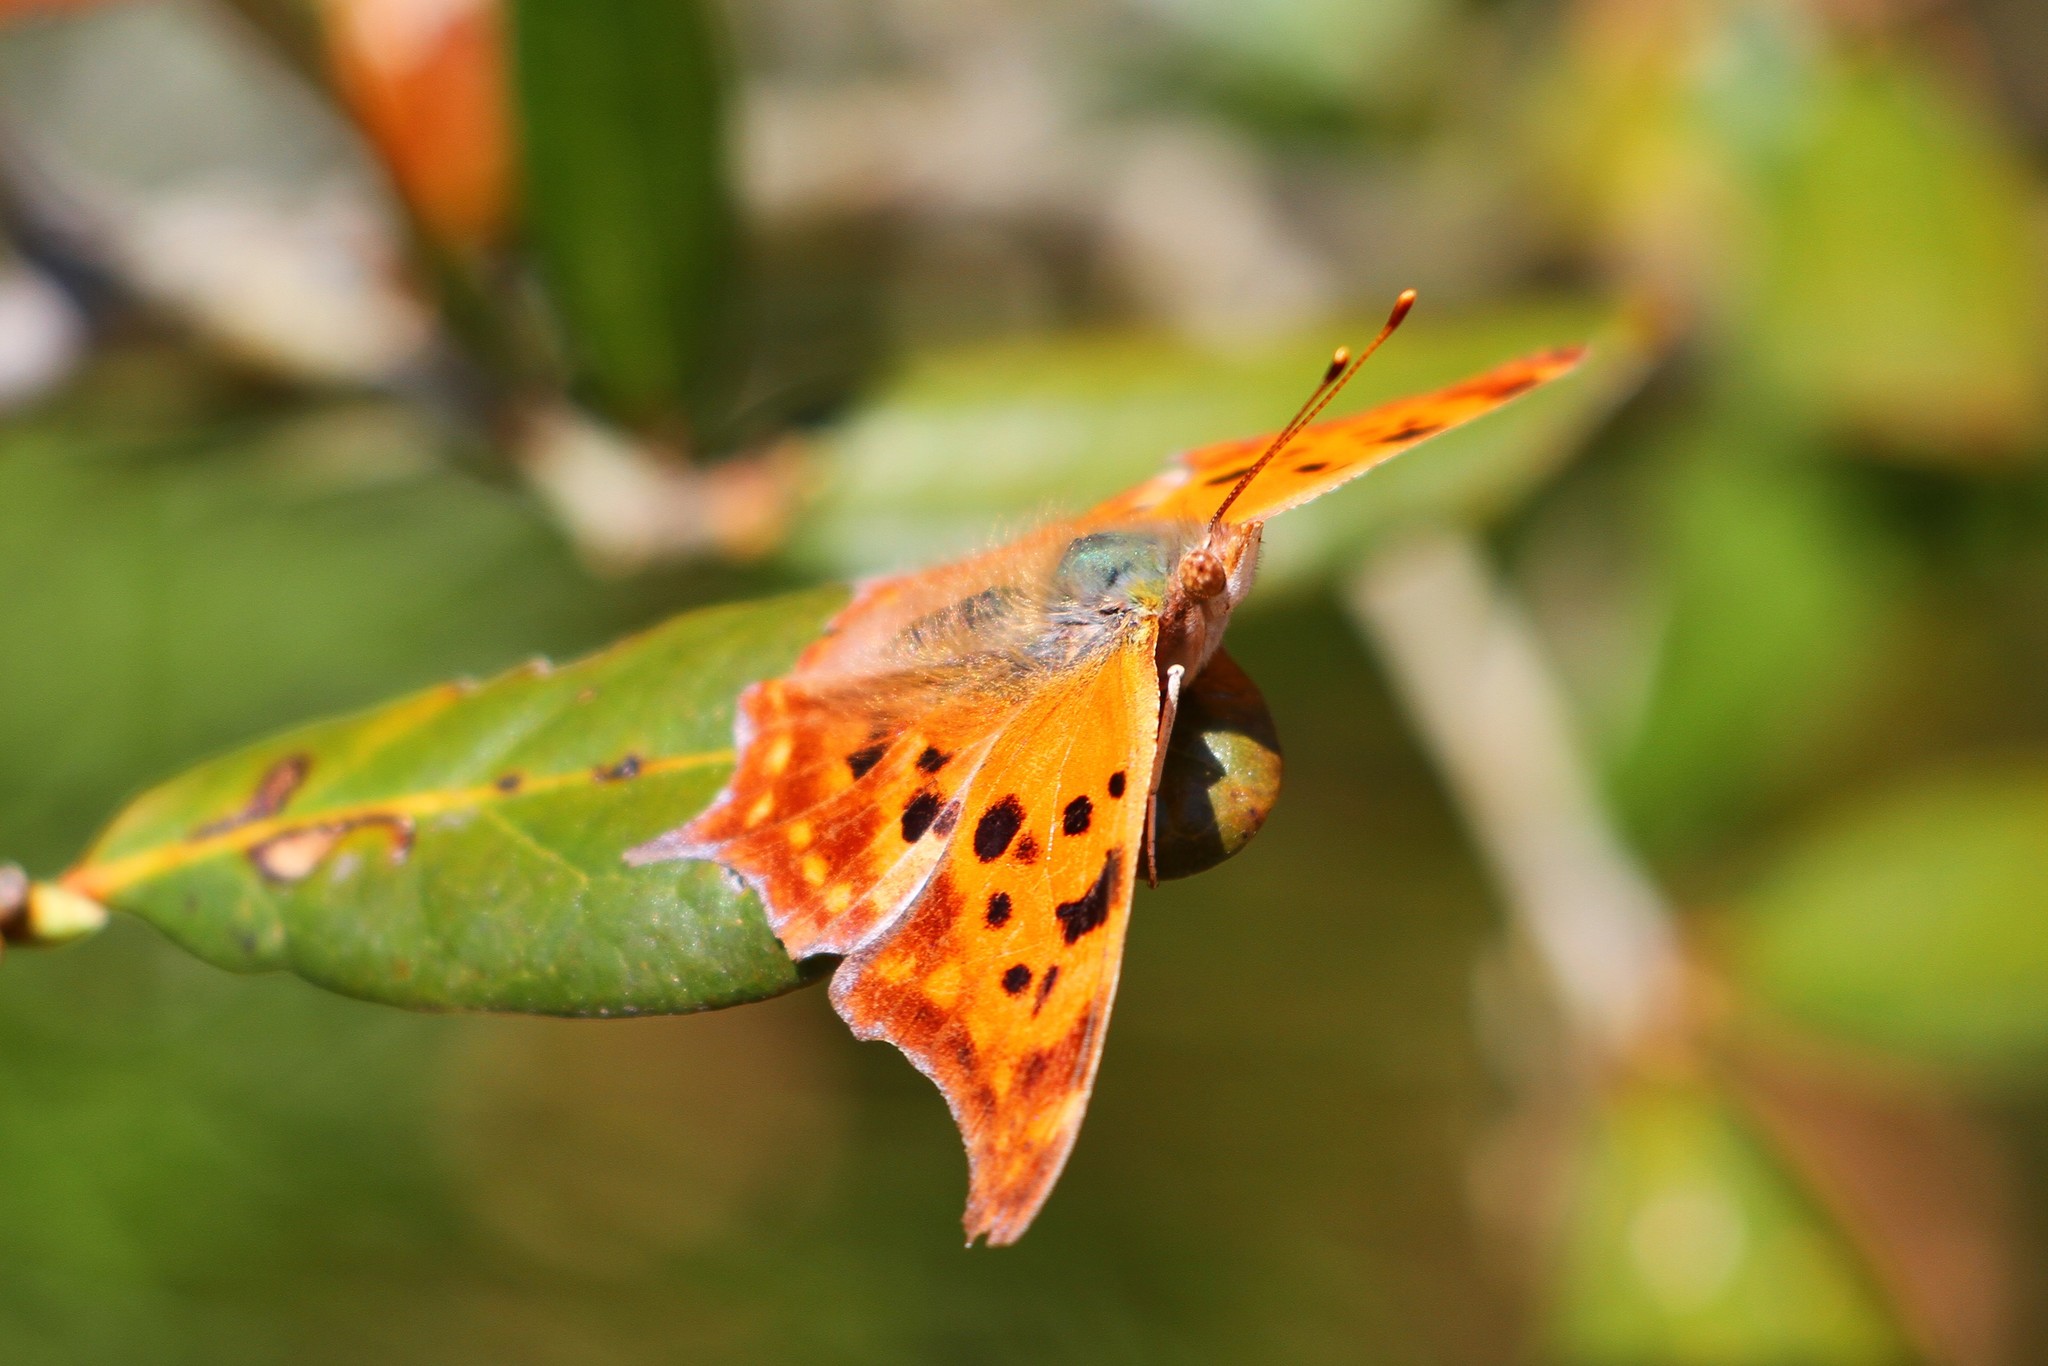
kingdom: Animalia
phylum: Arthropoda
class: Insecta
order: Lepidoptera
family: Nymphalidae
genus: Polygonia
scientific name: Polygonia interrogationis
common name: Question mark
